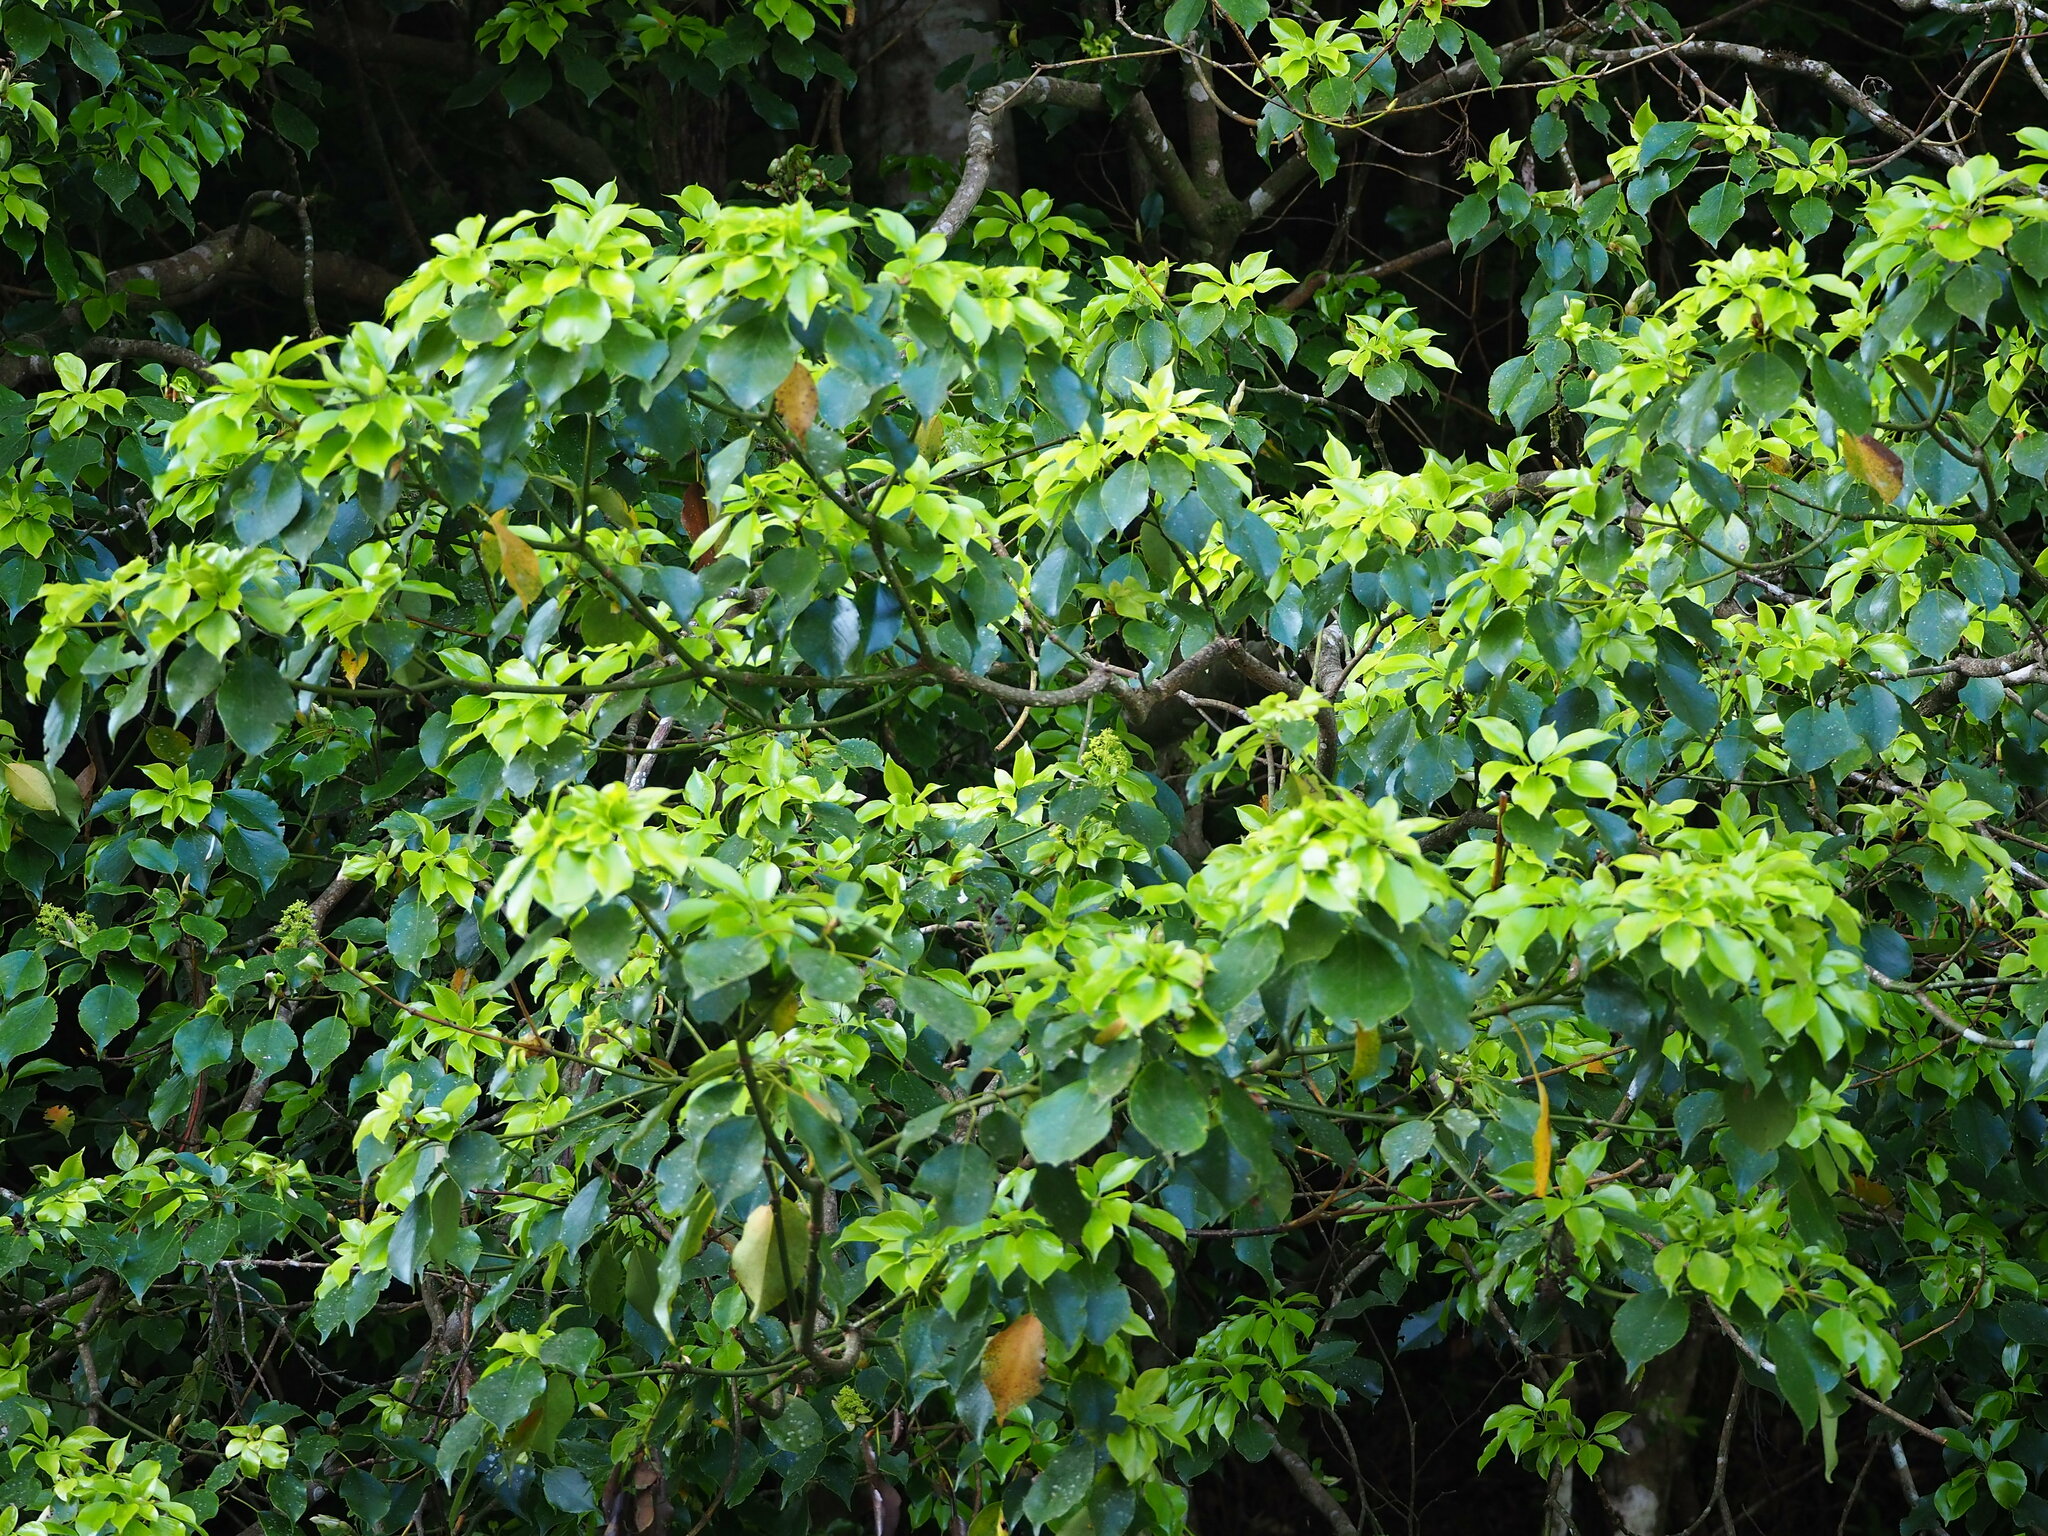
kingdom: Plantae
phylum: Tracheophyta
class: Magnoliopsida
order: Trochodendrales
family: Trochodendraceae
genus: Trochodendron
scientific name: Trochodendron aralioides
